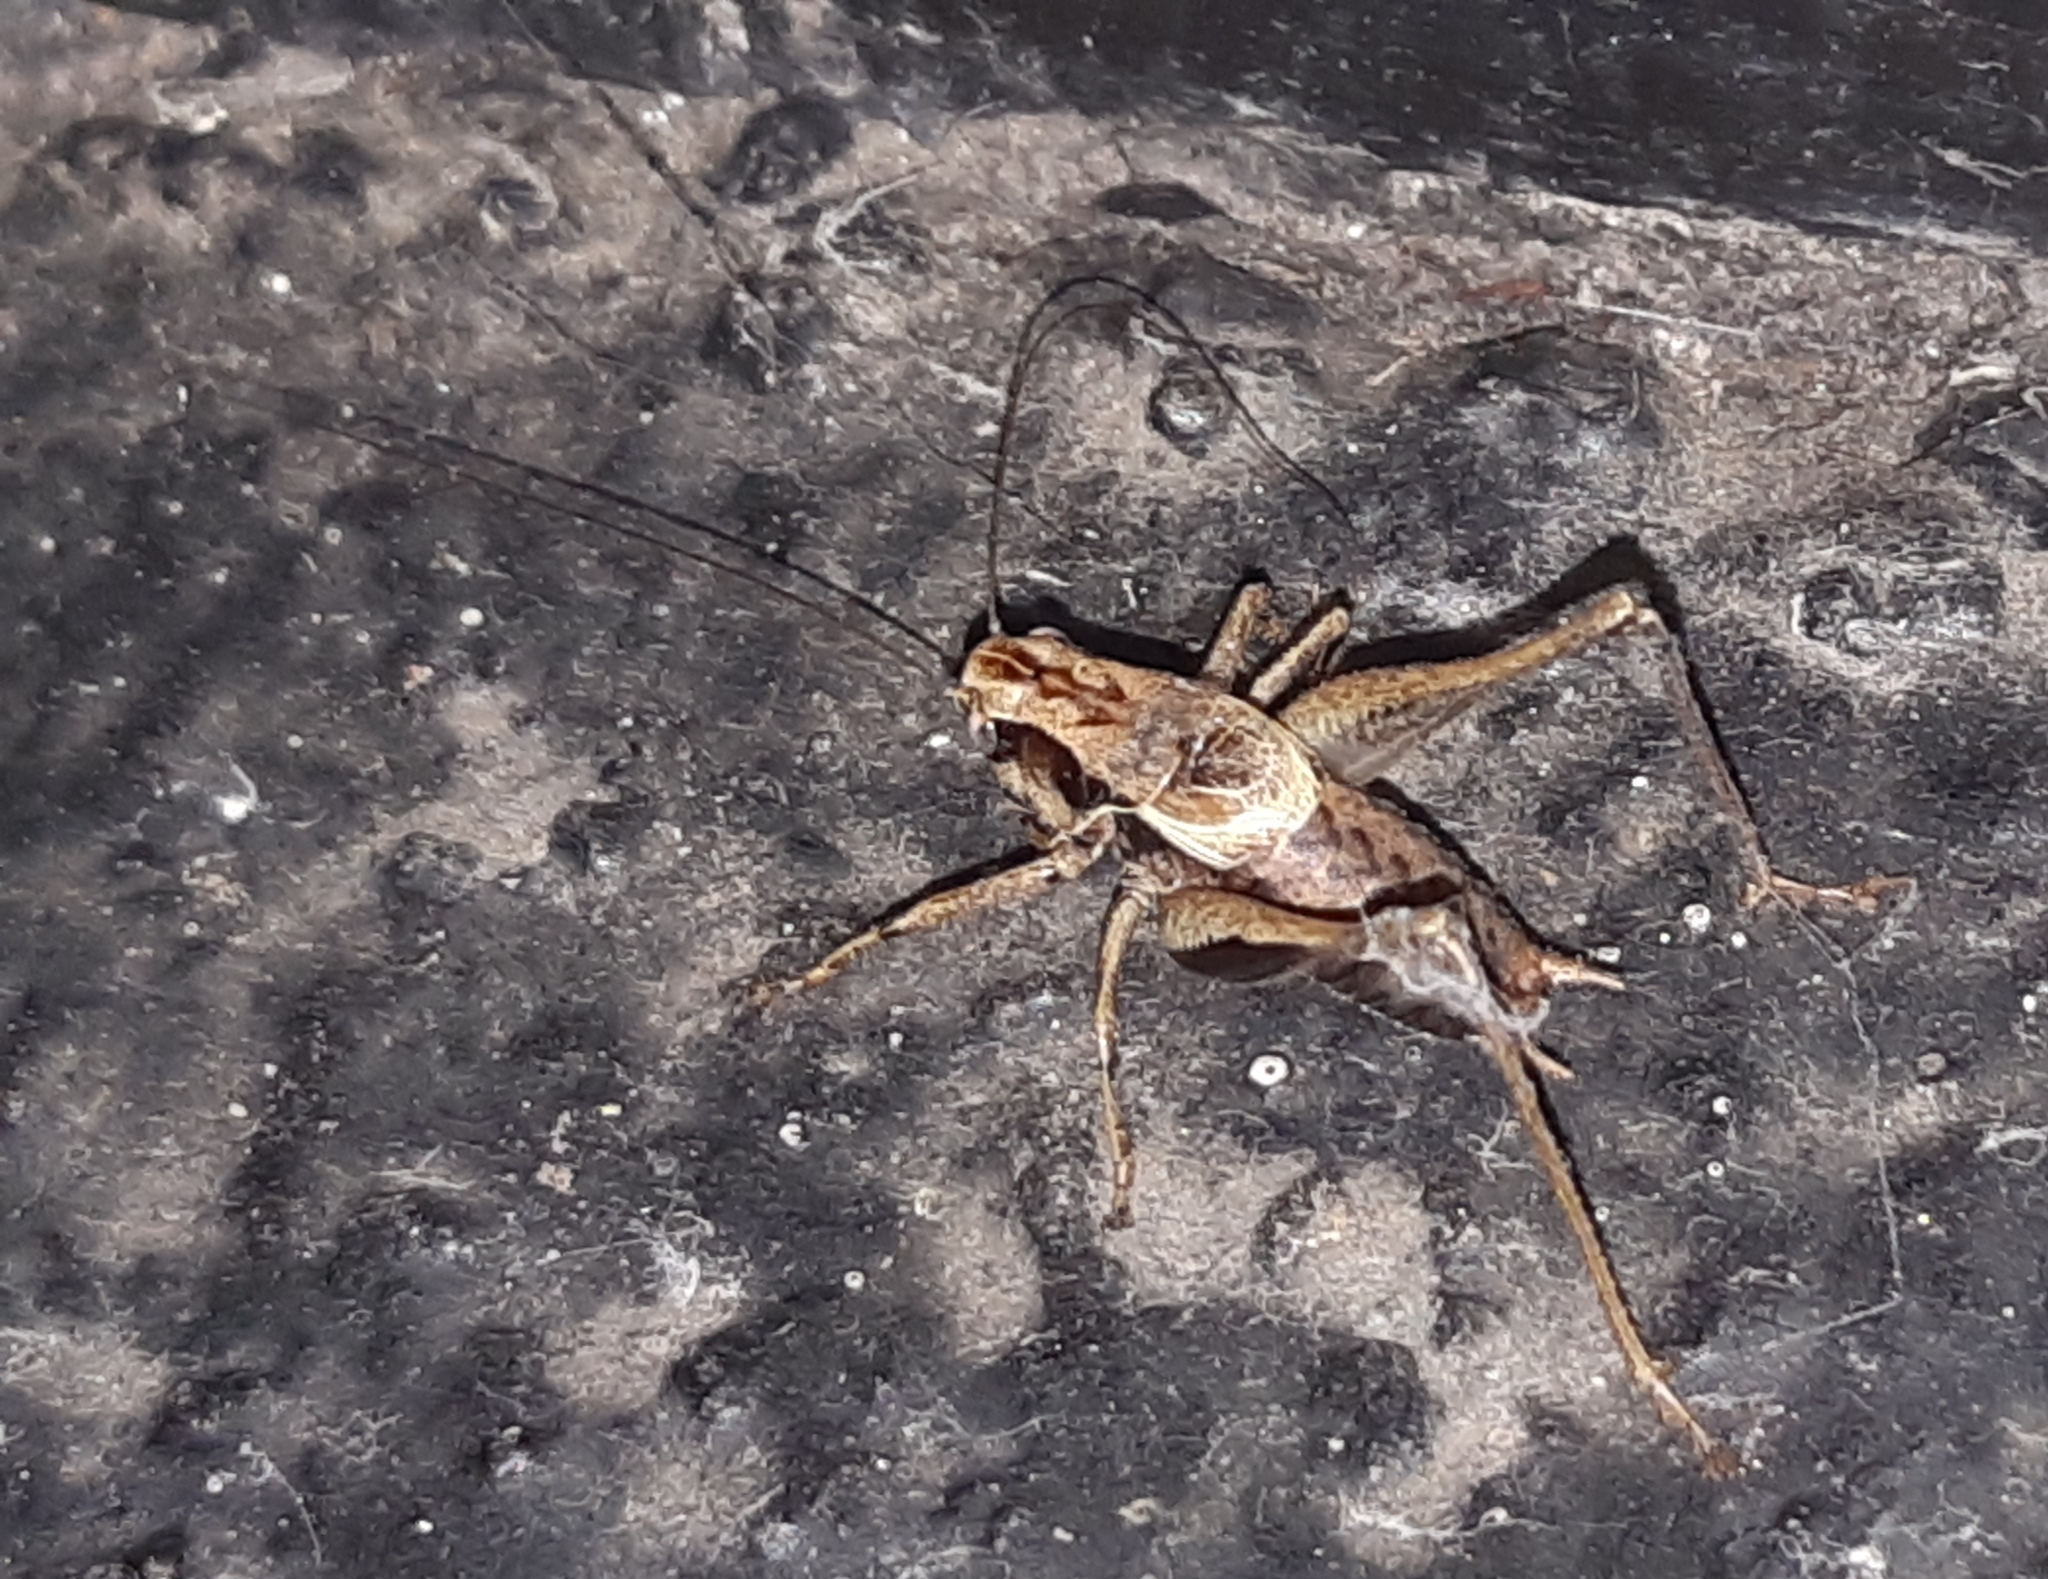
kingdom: Animalia
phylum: Arthropoda
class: Insecta
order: Orthoptera
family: Tettigoniidae
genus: Pholidoptera
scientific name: Pholidoptera griseoaptera
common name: Dark bush-cricket
